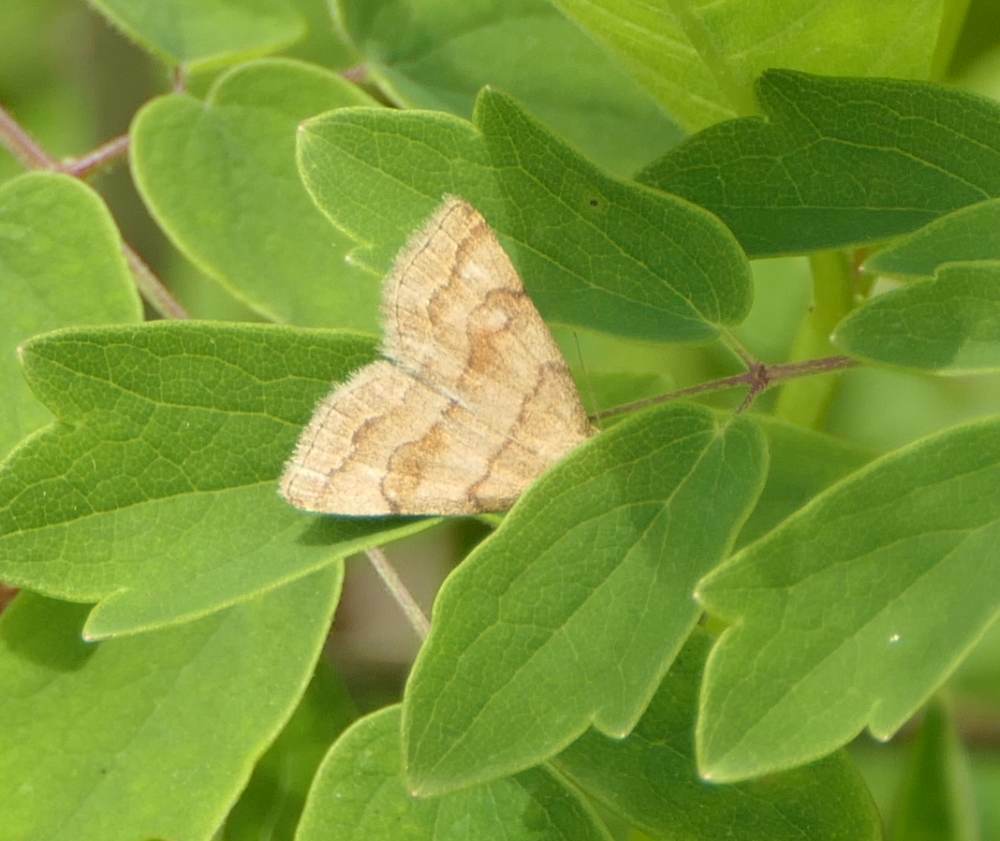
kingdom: Animalia
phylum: Arthropoda
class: Insecta
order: Lepidoptera
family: Erebidae
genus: Phalaenostola
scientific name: Phalaenostola metonalis
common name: Pale phalaenostola moth
